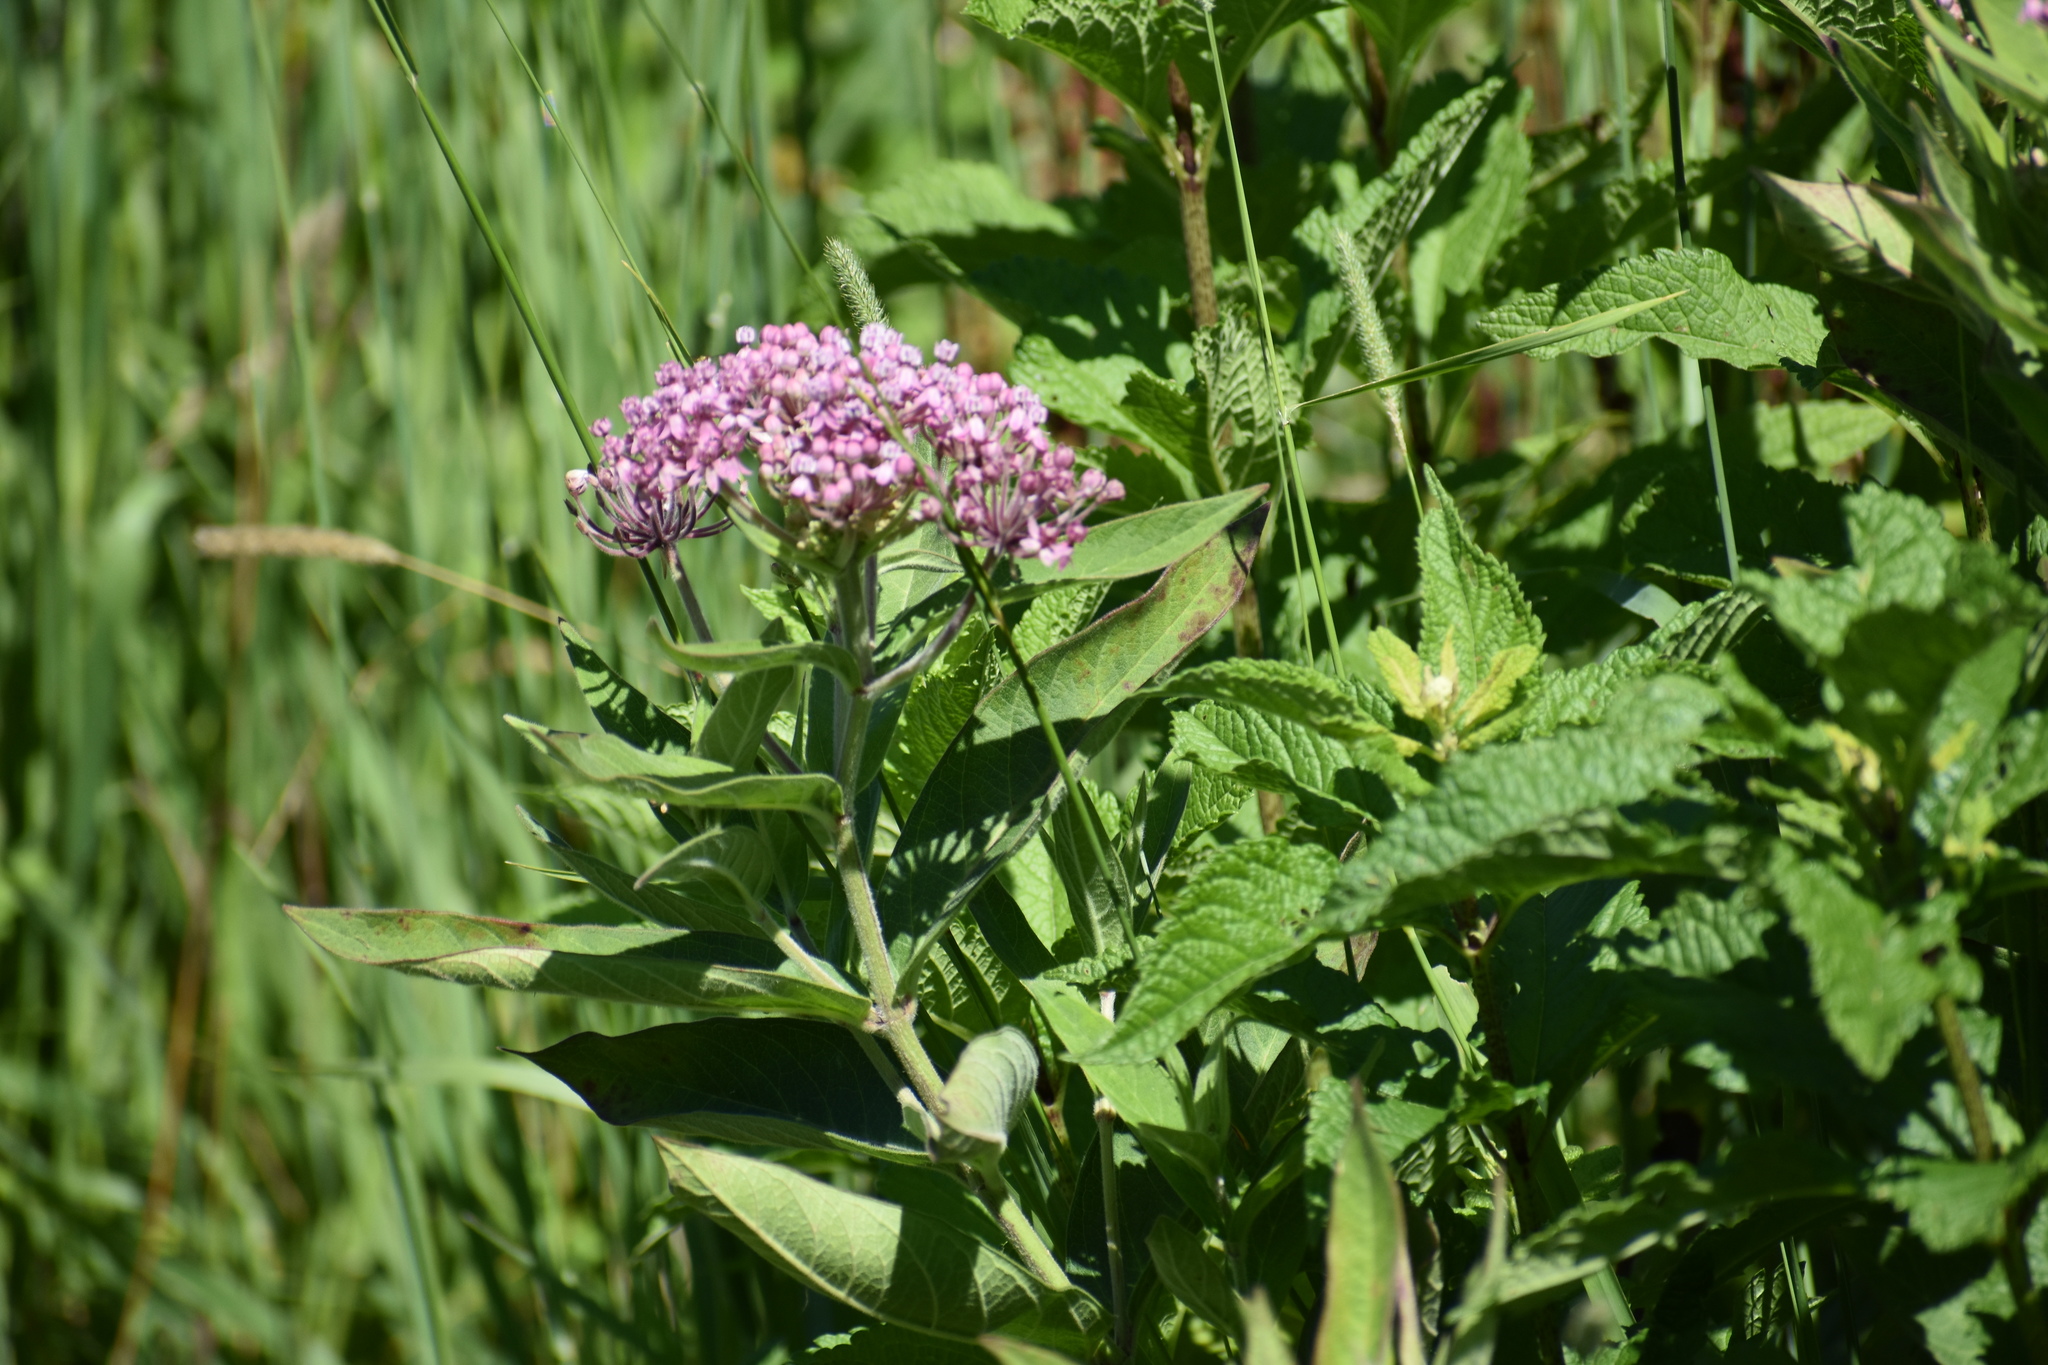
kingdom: Plantae
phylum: Tracheophyta
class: Magnoliopsida
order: Gentianales
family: Apocynaceae
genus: Asclepias
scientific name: Asclepias incarnata
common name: Swamp milkweed
